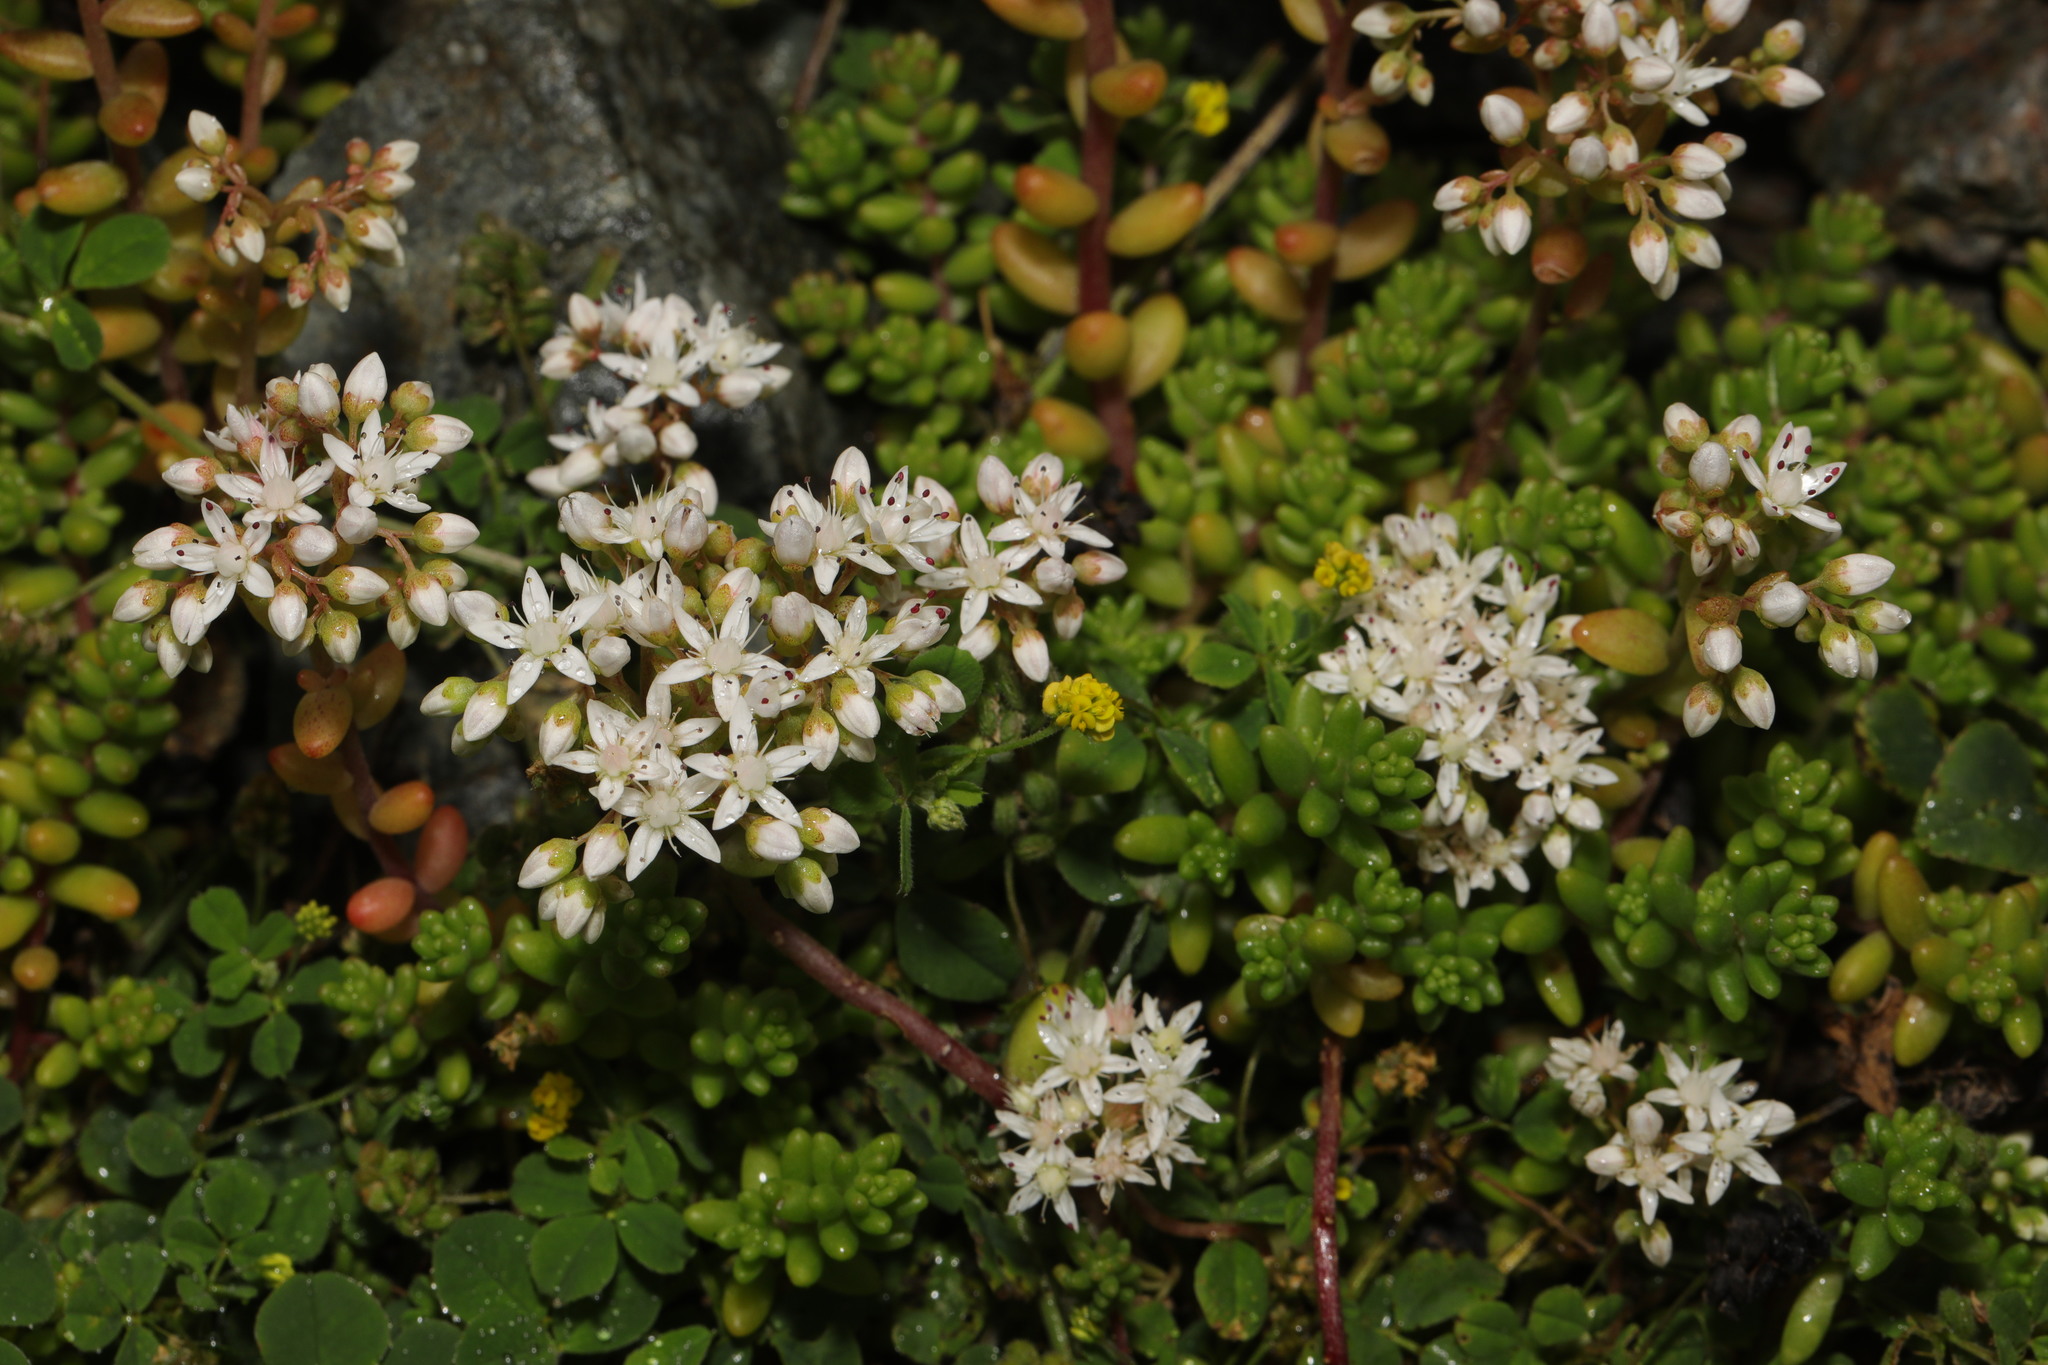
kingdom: Plantae
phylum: Tracheophyta
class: Magnoliopsida
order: Saxifragales
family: Crassulaceae
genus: Sedum
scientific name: Sedum album
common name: White stonecrop
